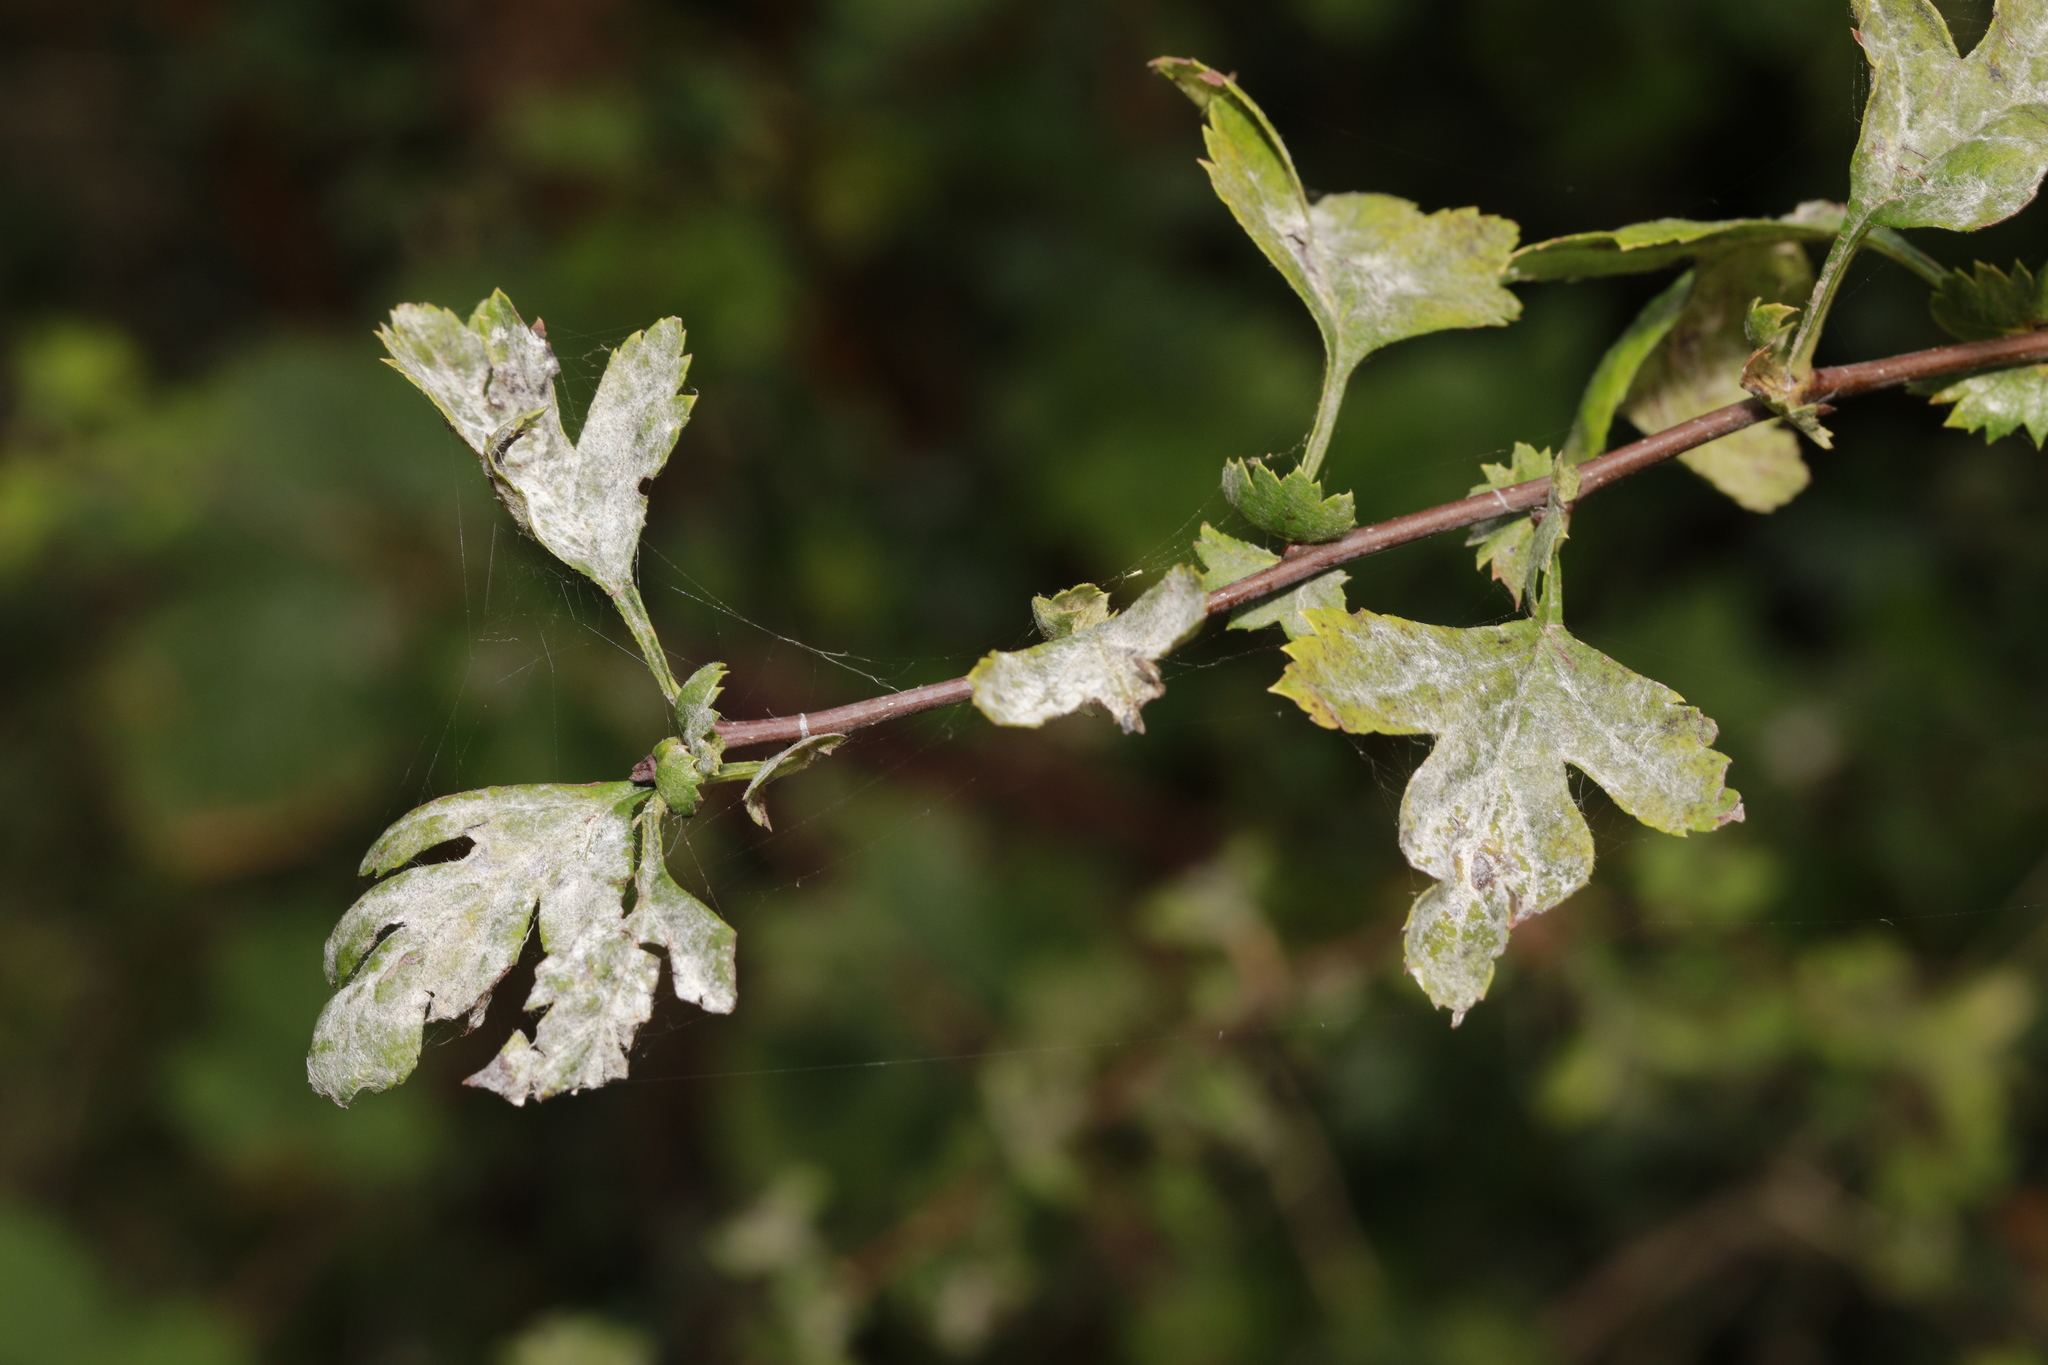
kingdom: Fungi
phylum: Ascomycota
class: Leotiomycetes
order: Helotiales
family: Erysiphaceae
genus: Podosphaera
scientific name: Podosphaera clandestina
